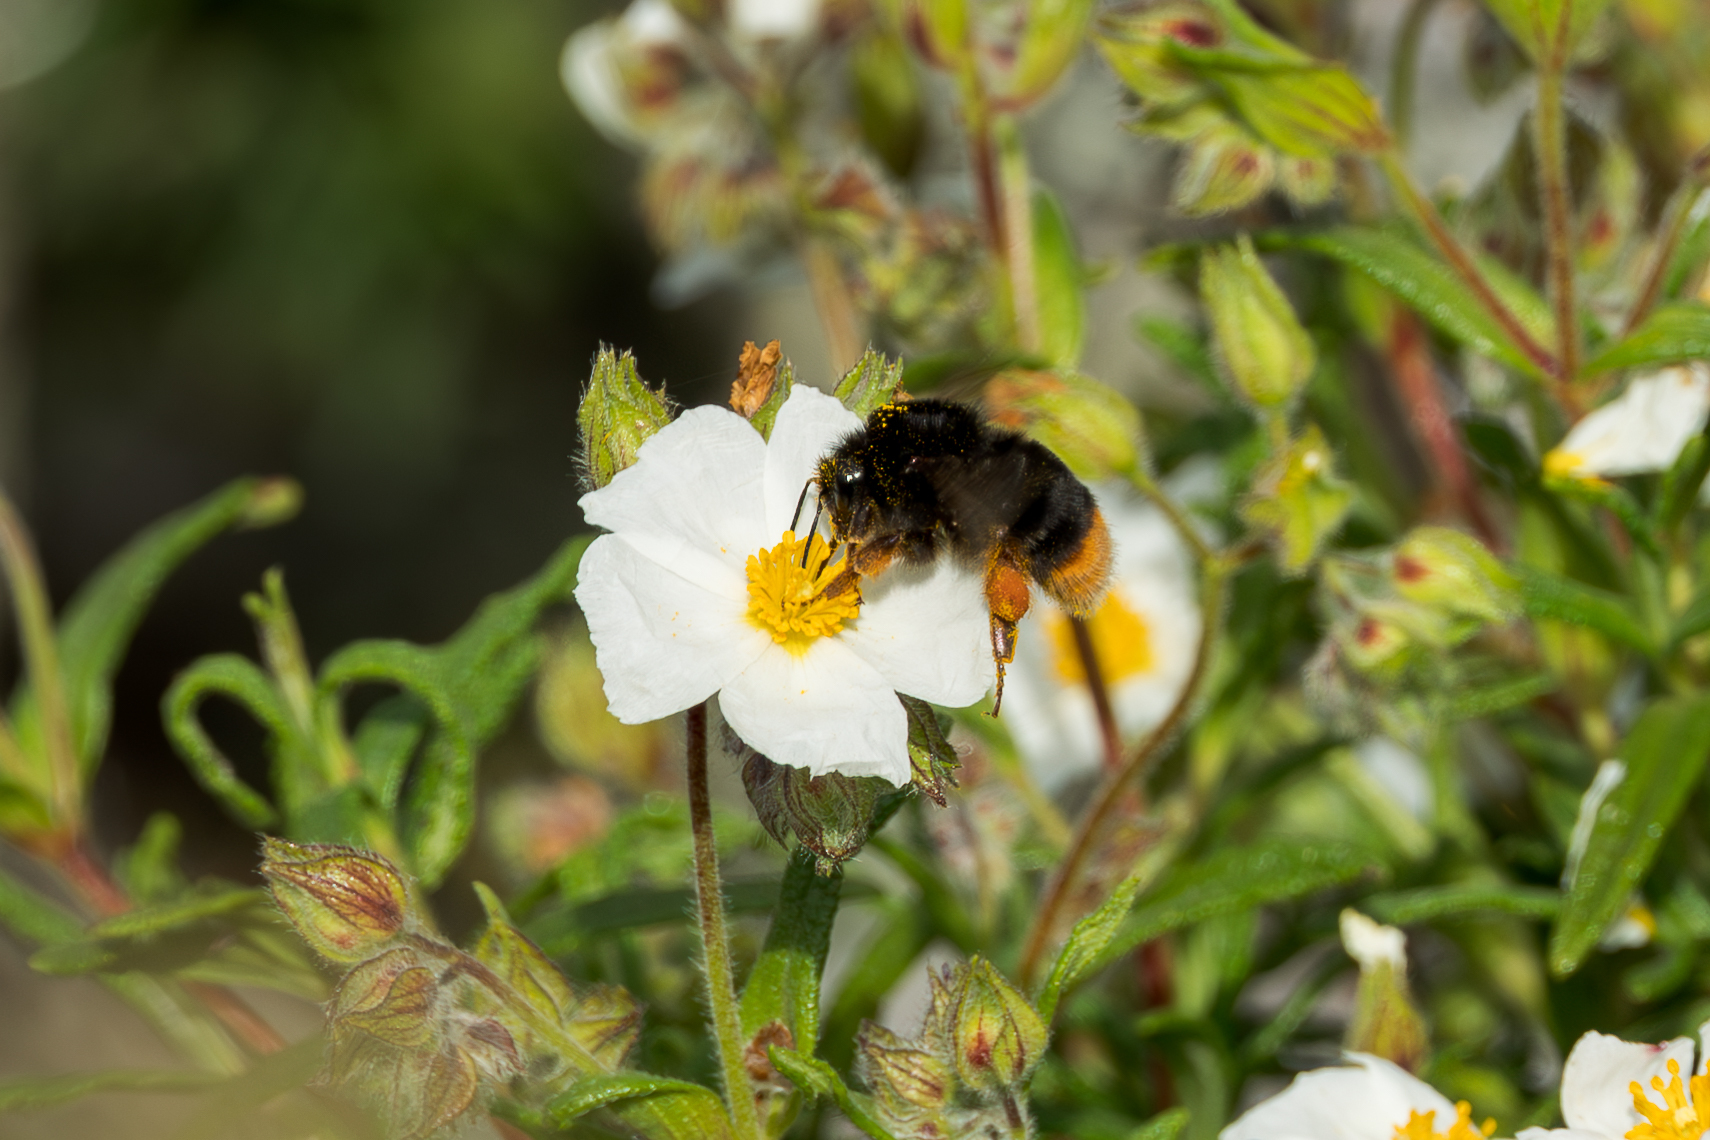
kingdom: Plantae
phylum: Tracheophyta
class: Magnoliopsida
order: Malvales
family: Cistaceae
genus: Cistus
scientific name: Cistus monspeliensis
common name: Montpelier cistus
